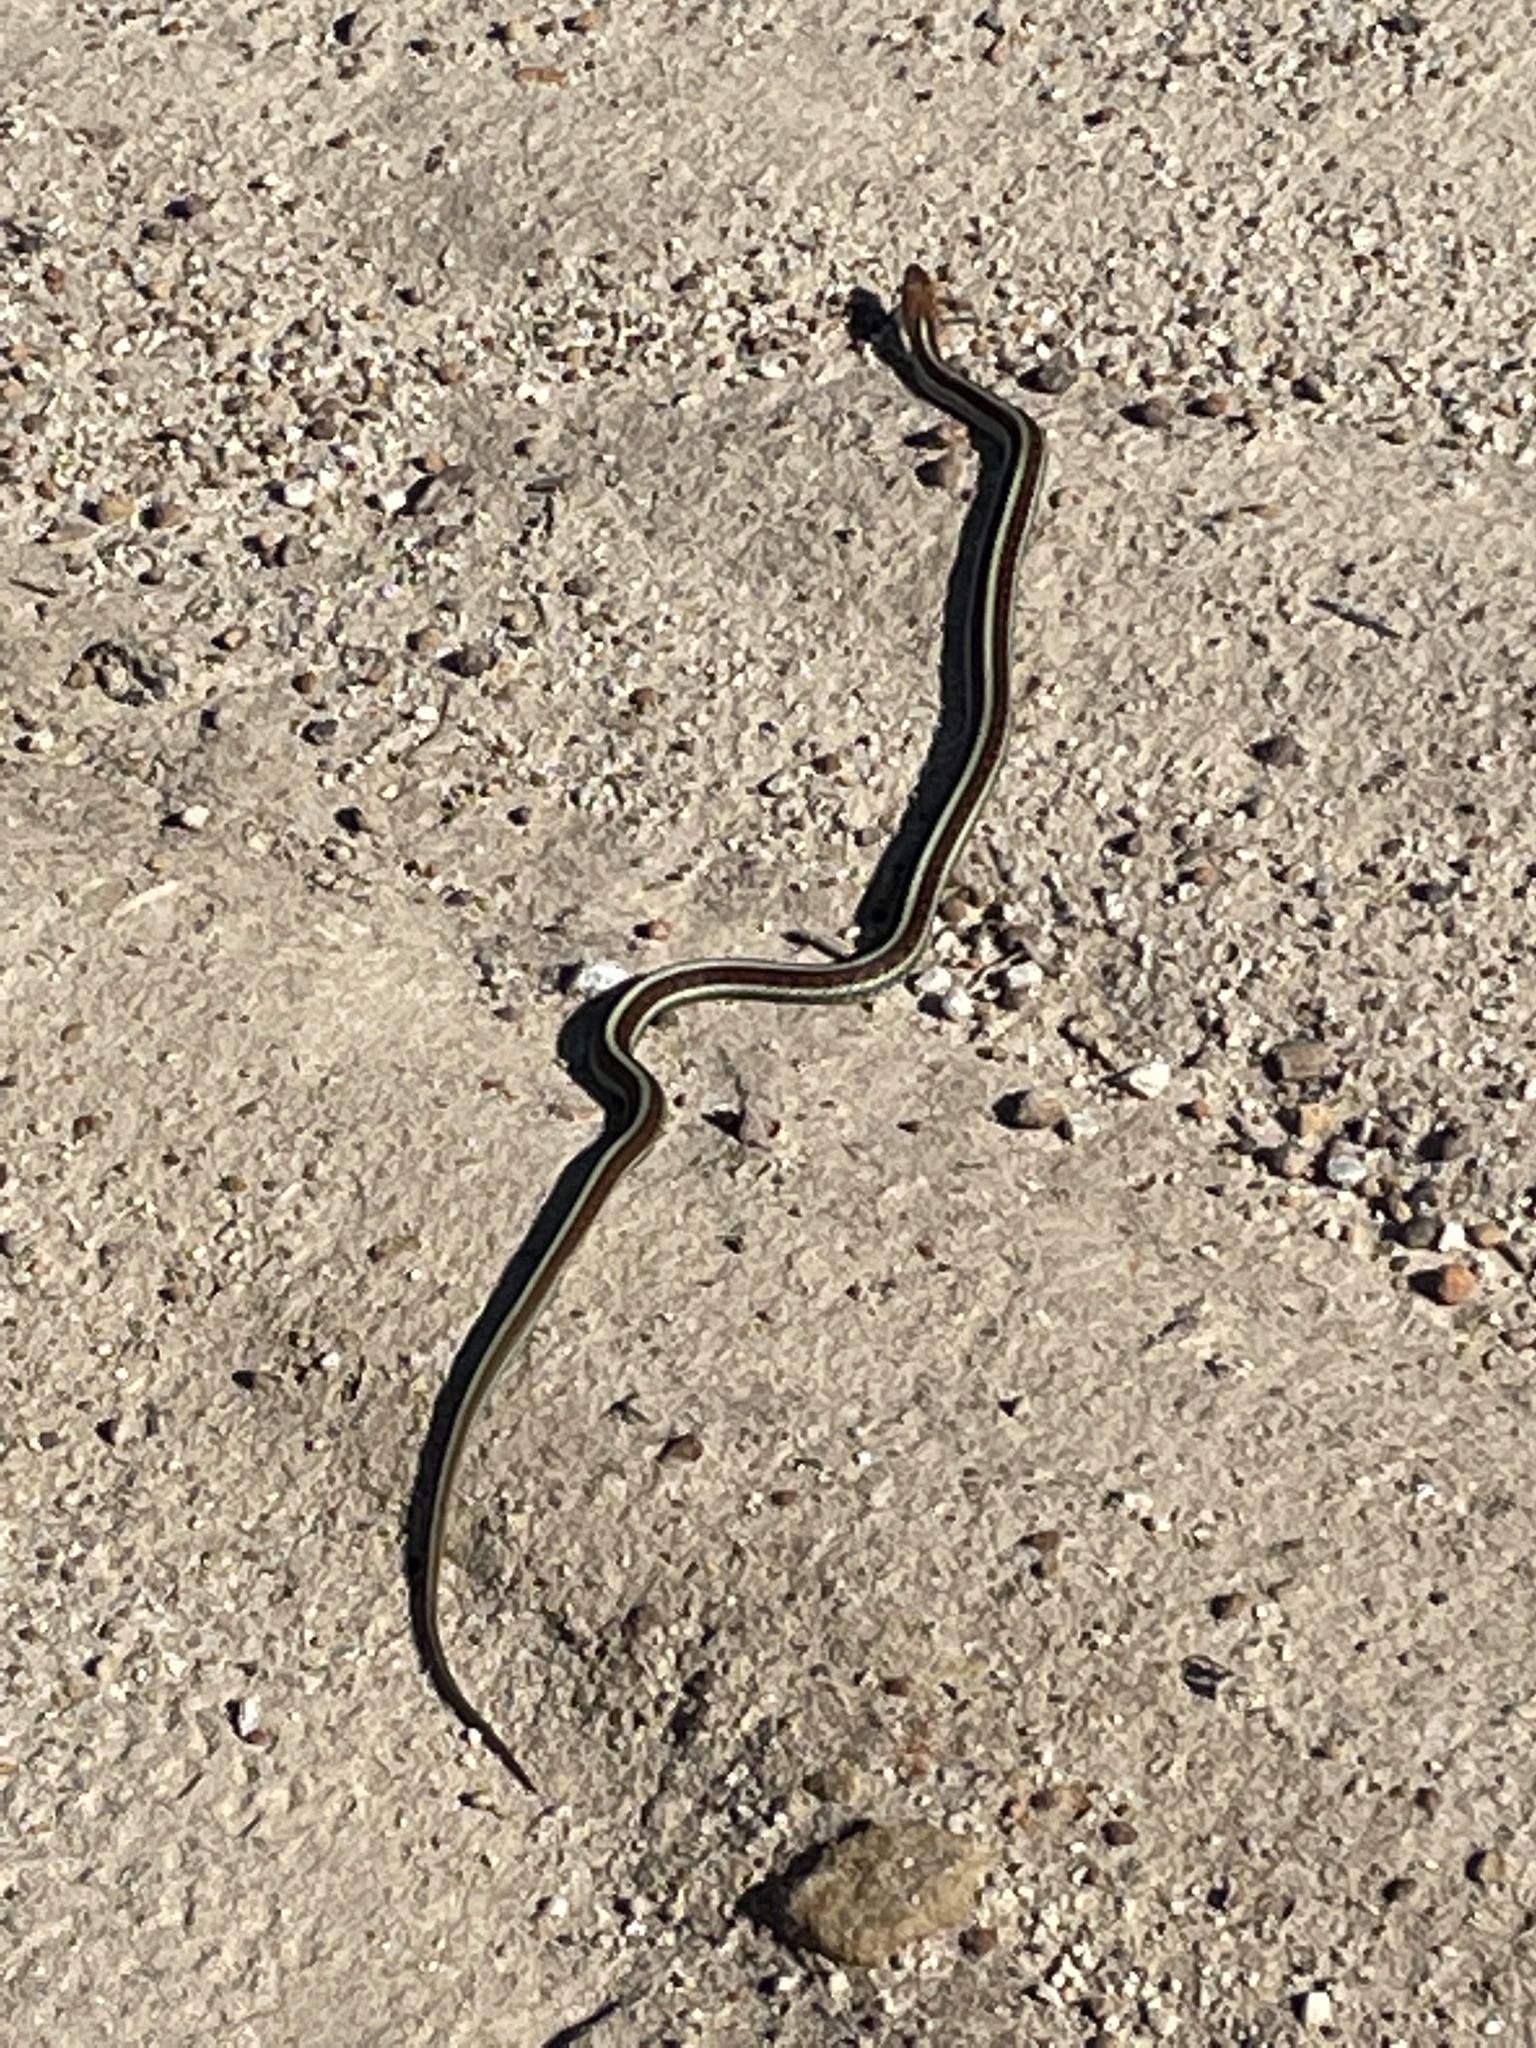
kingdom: Animalia
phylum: Chordata
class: Squamata
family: Colubridae
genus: Thamnophis
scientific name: Thamnophis sirtalis
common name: Common garter snake
